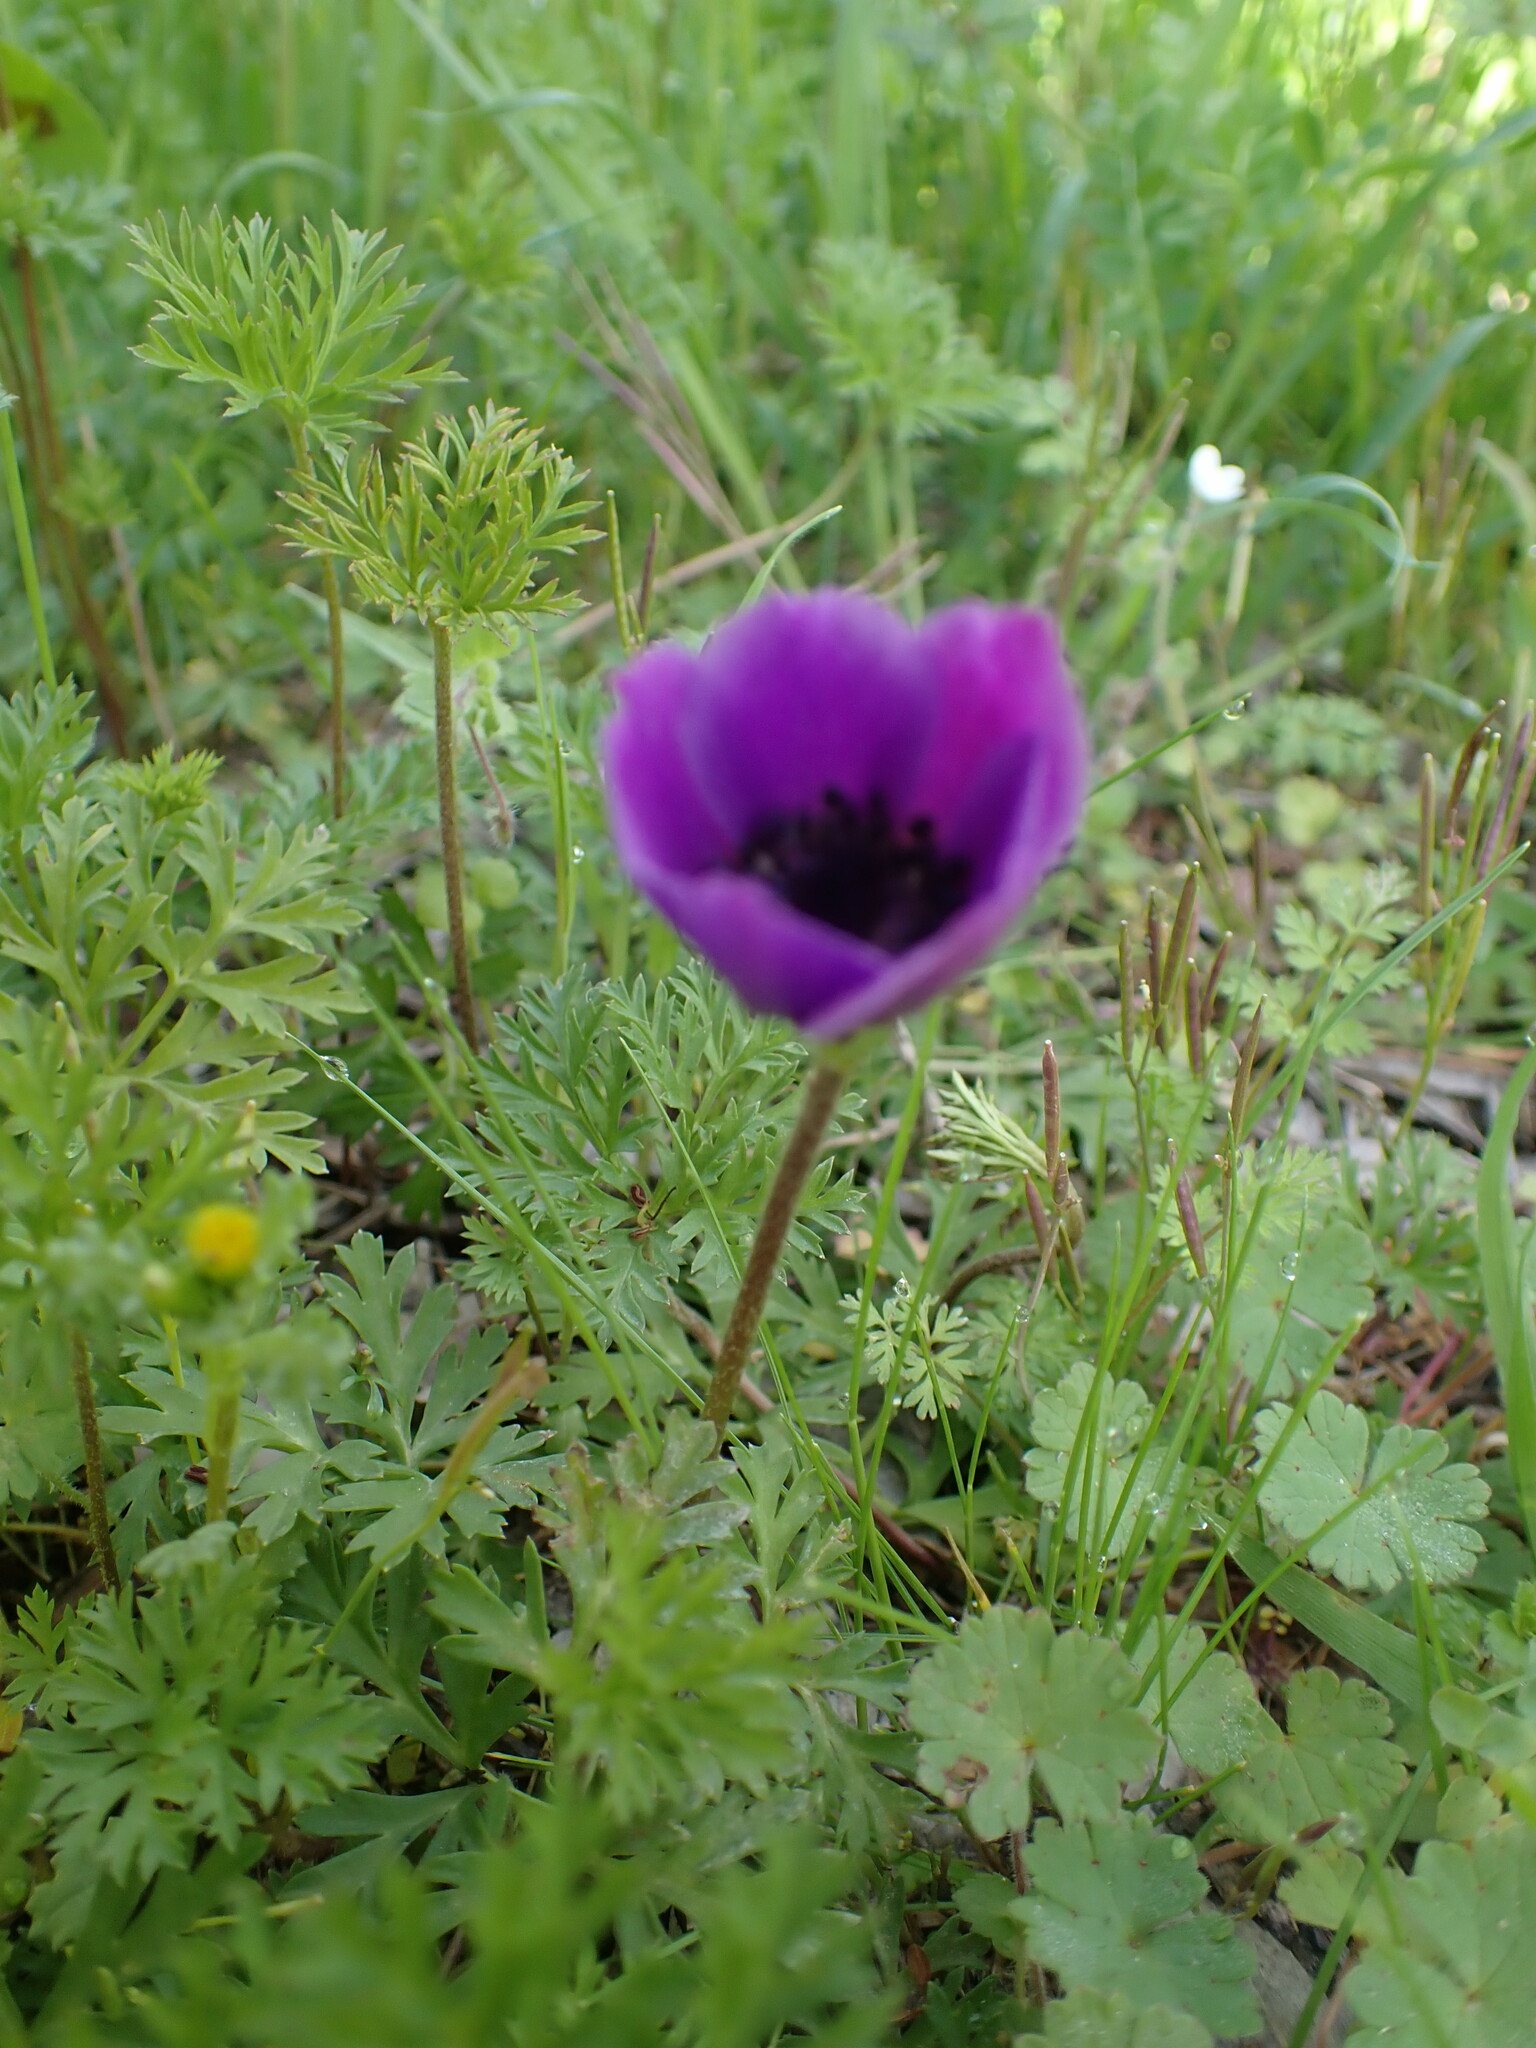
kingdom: Plantae
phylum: Tracheophyta
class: Magnoliopsida
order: Ranunculales
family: Ranunculaceae
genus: Anemone
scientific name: Anemone coronaria
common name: Poppy anemone
